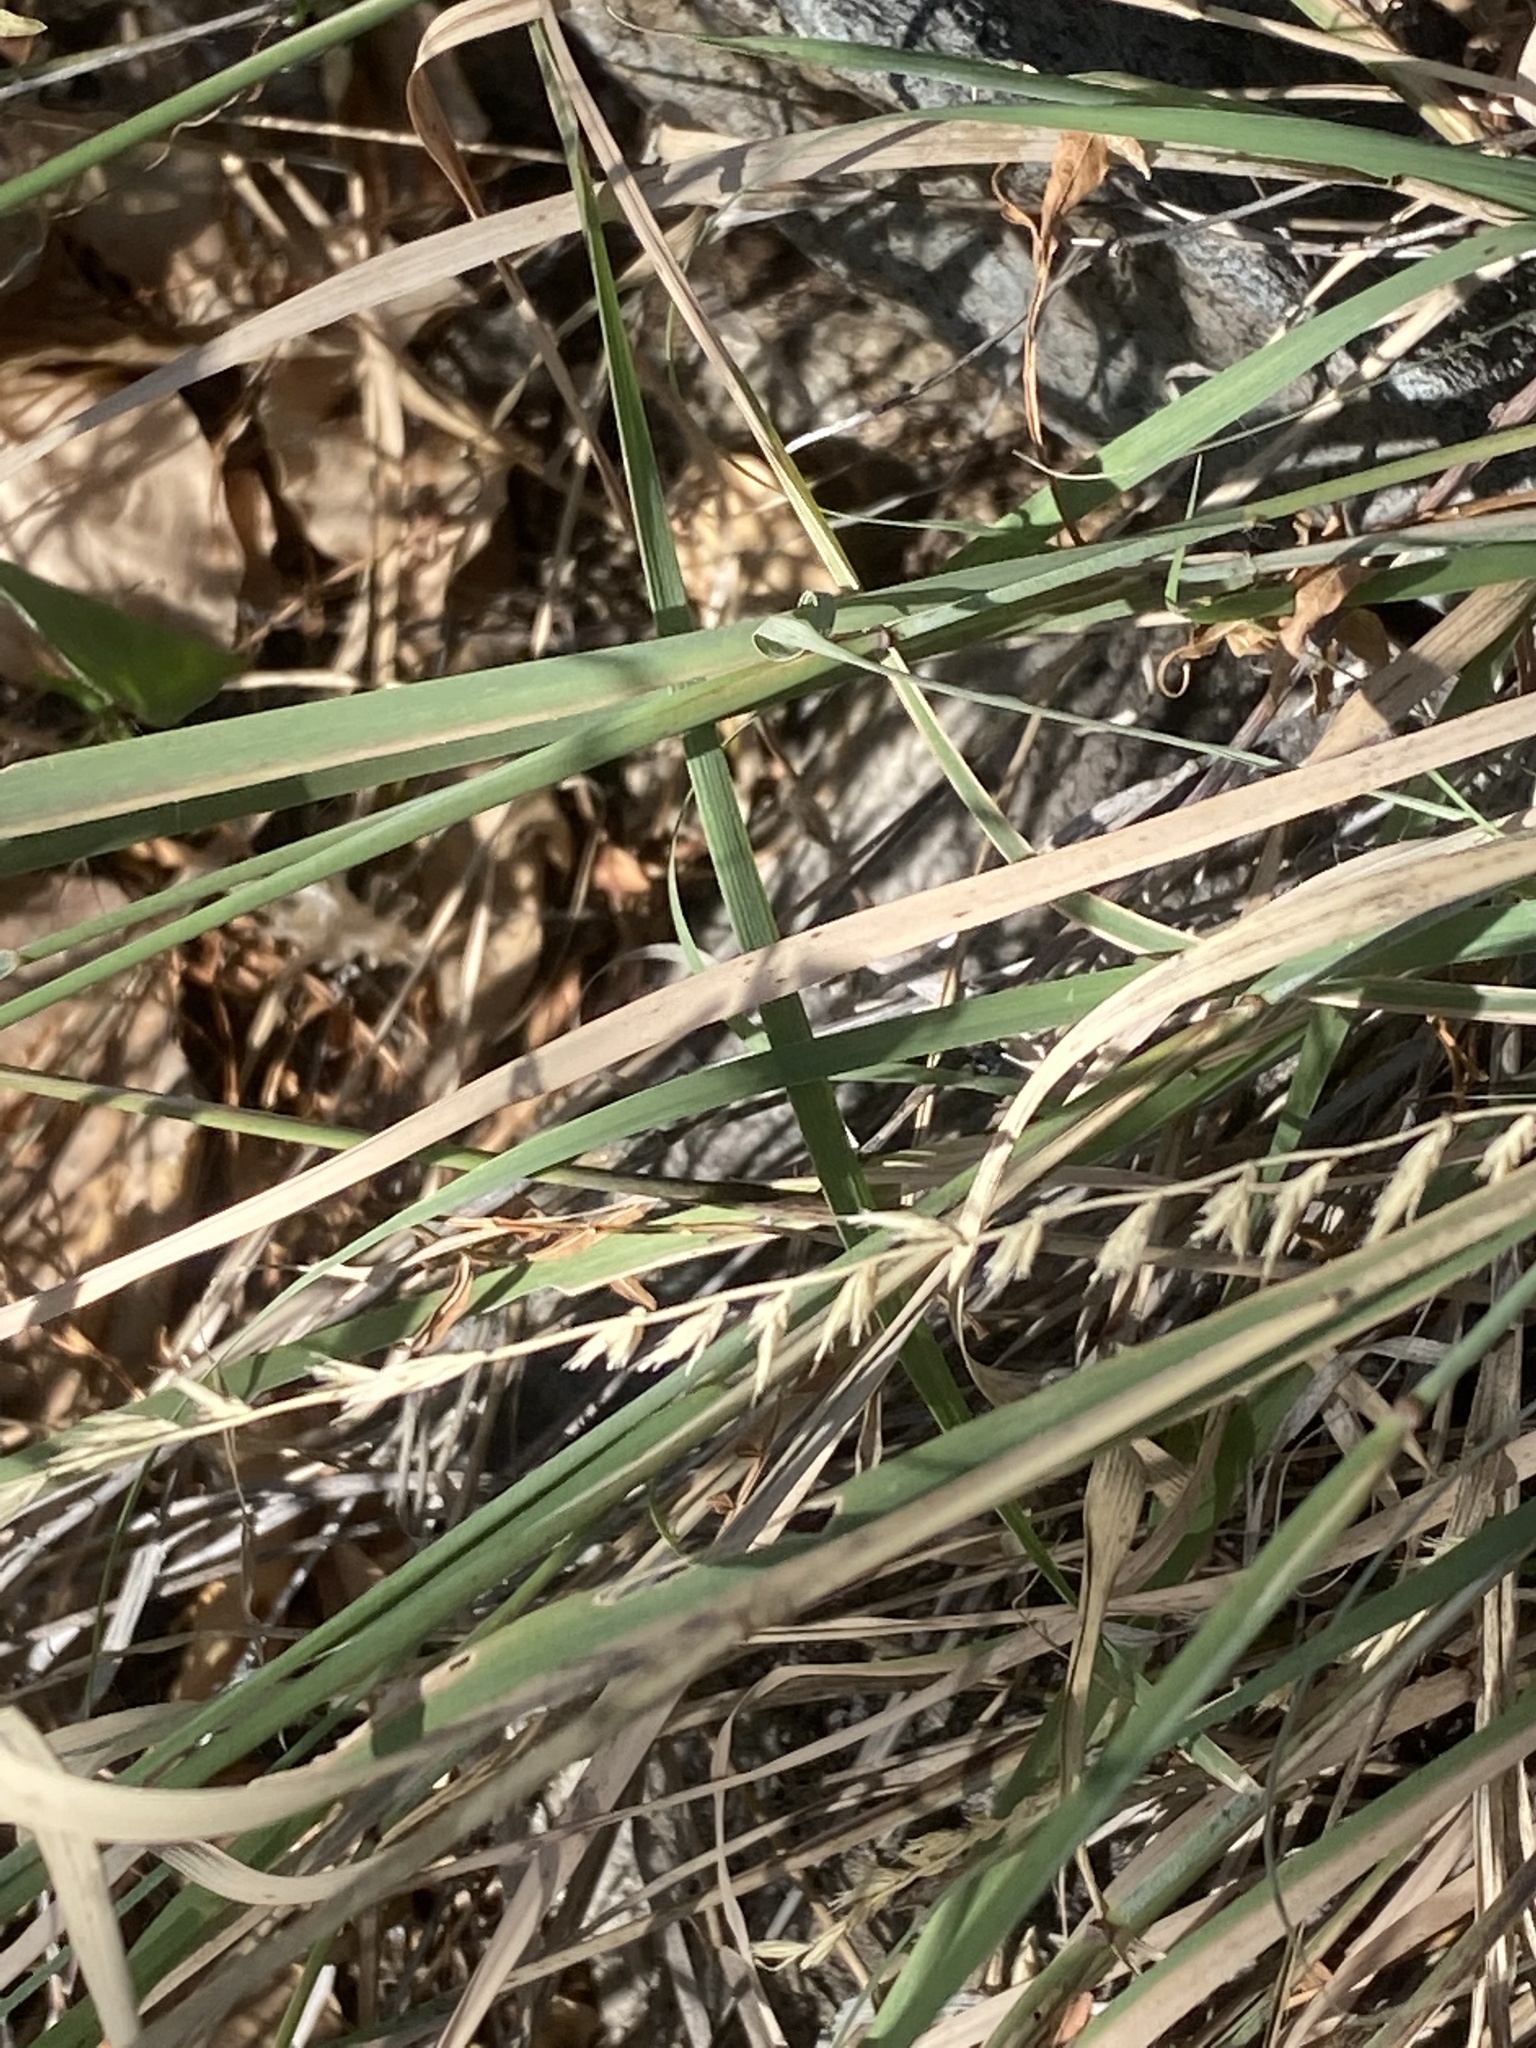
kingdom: Plantae
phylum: Tracheophyta
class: Liliopsida
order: Poales
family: Poaceae
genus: Bouteloua
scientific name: Bouteloua curtipendula
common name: Side-oats grama
